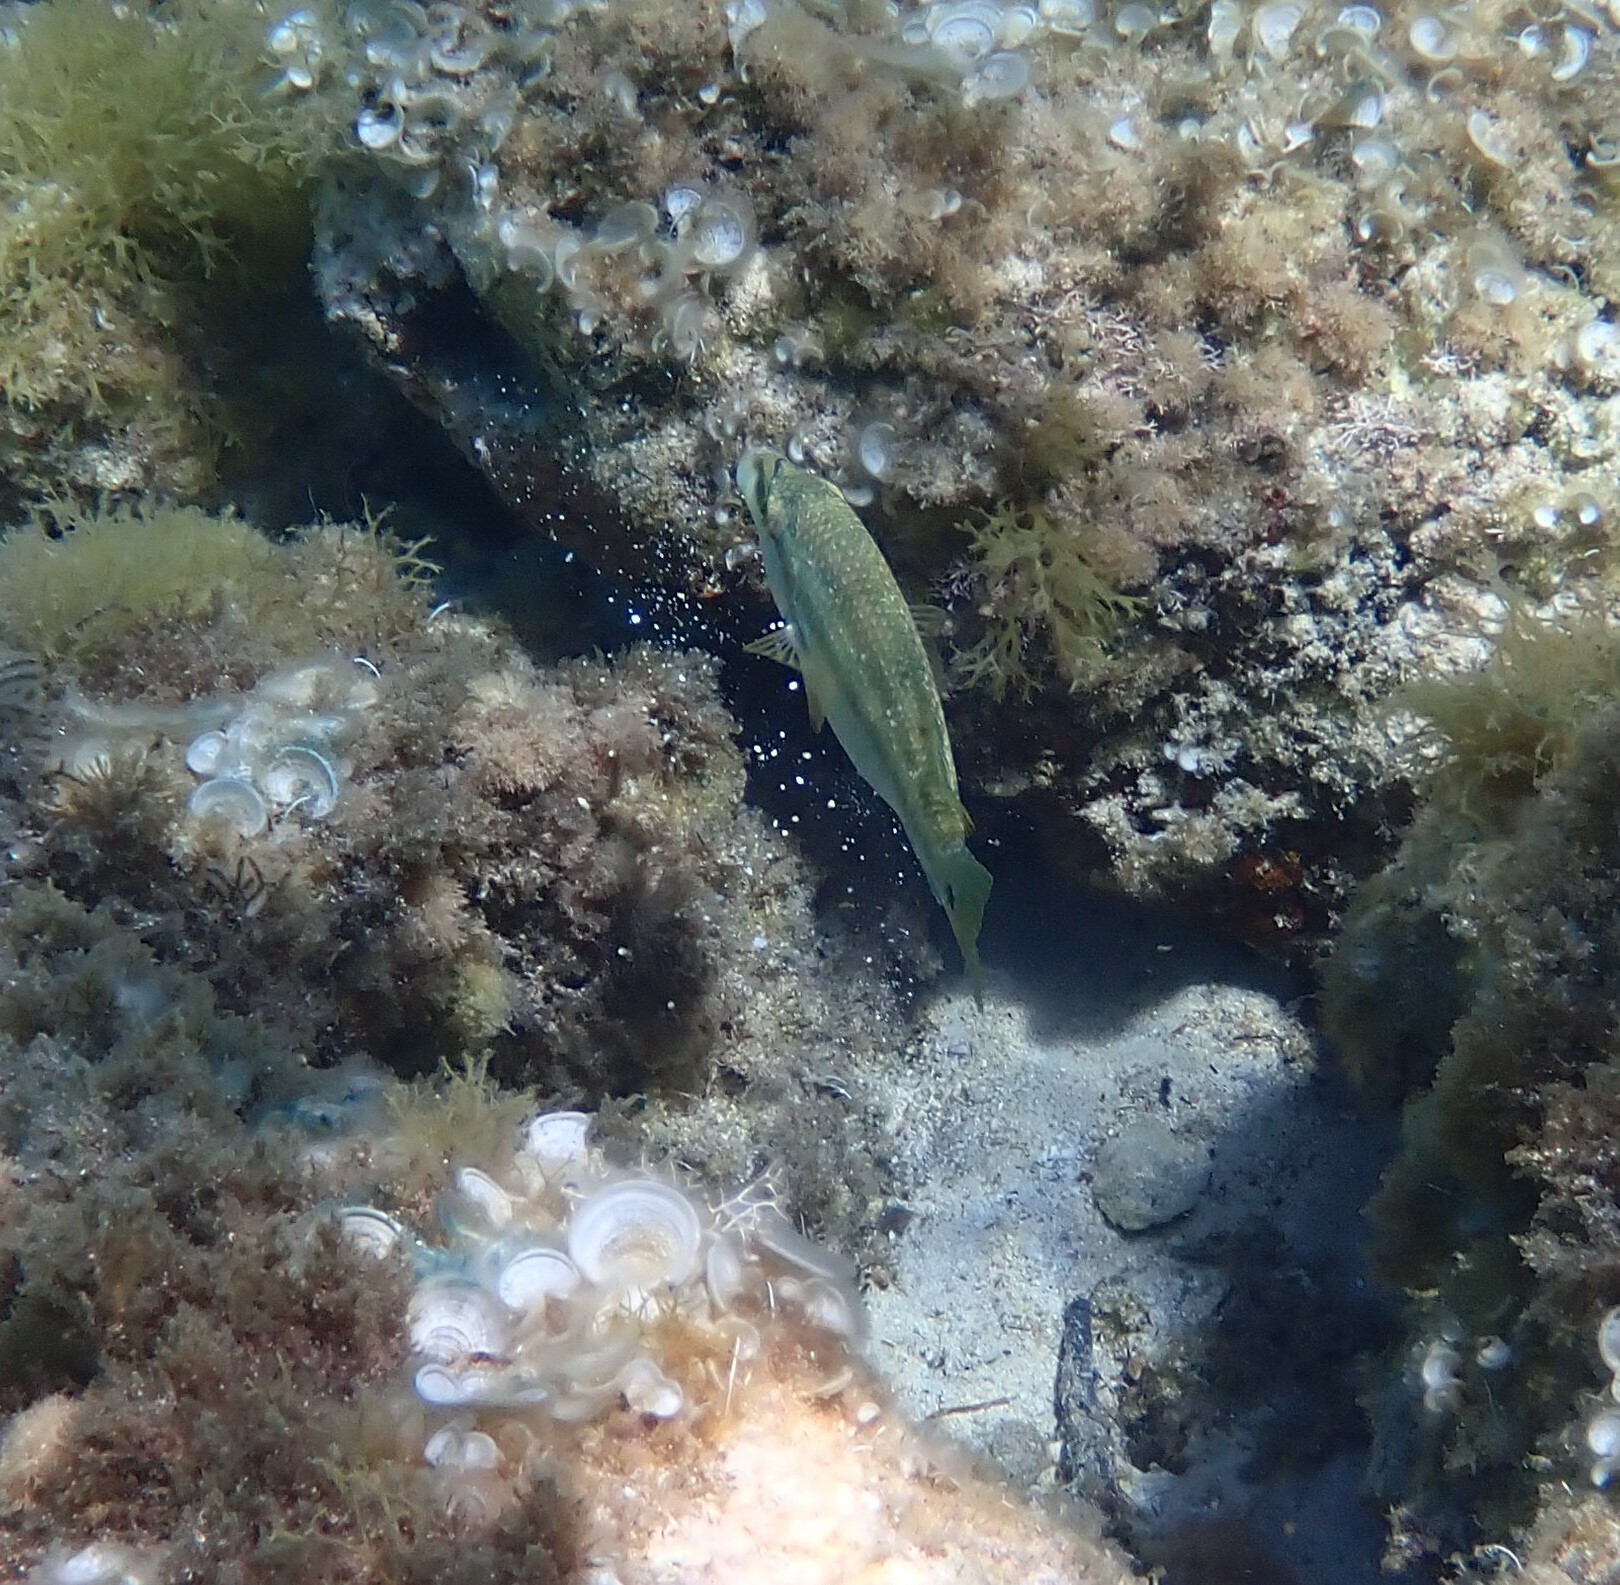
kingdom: Animalia
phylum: Chordata
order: Perciformes
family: Labridae
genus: Symphodus
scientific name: Symphodus tinca
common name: Peacock wrasse
